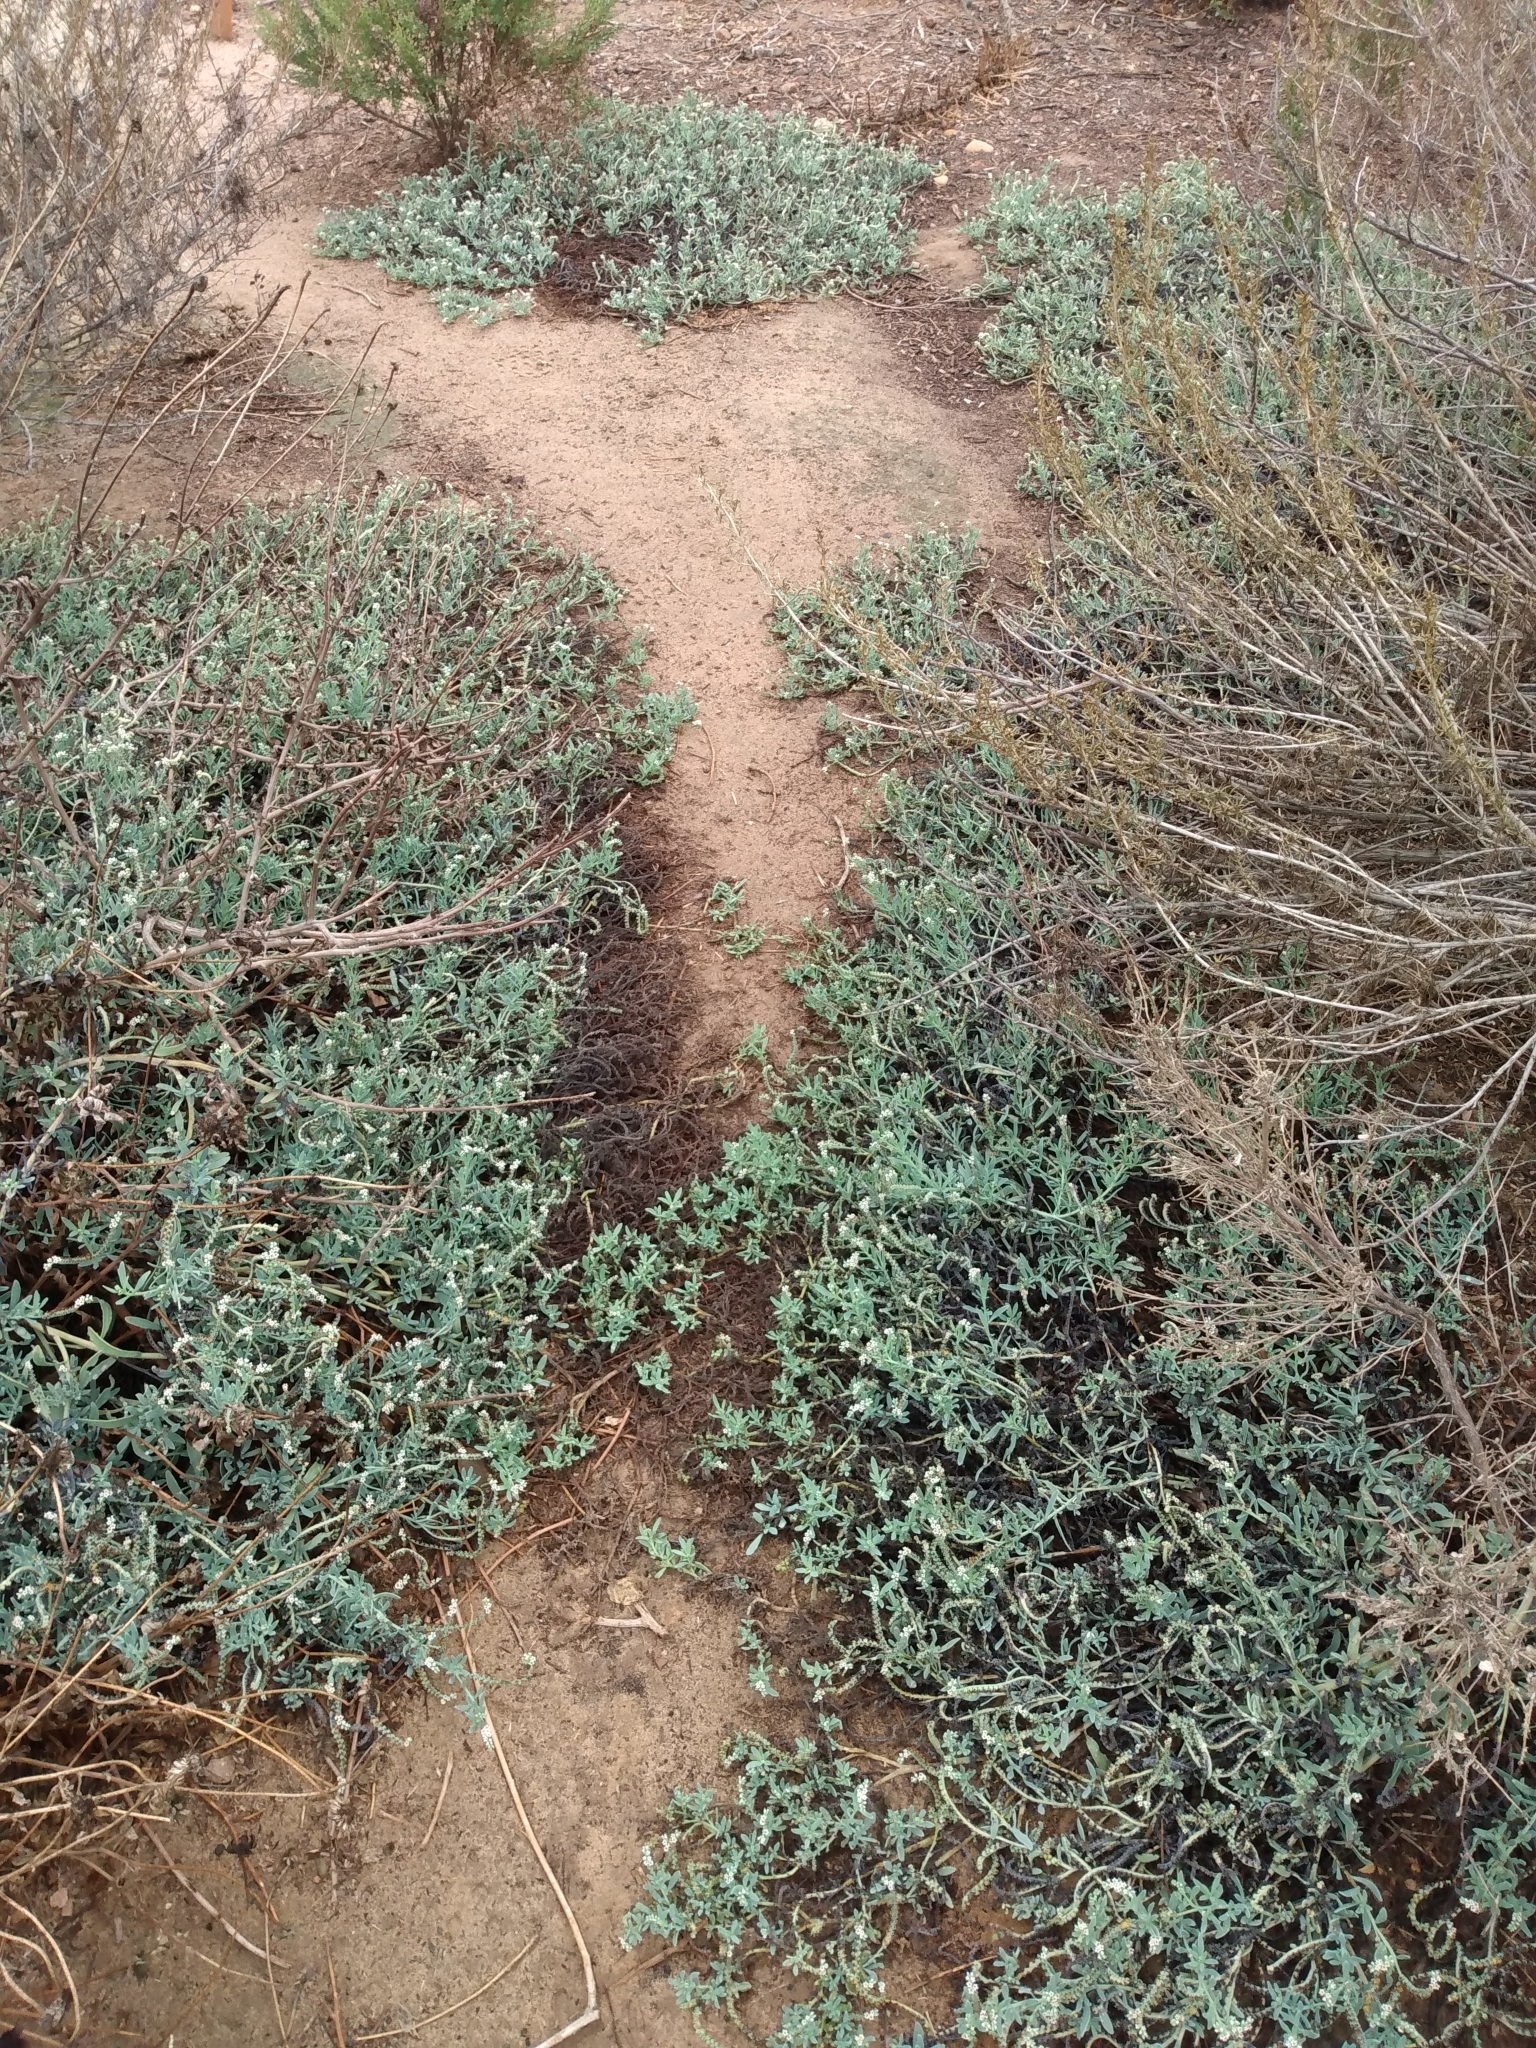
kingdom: Plantae
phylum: Tracheophyta
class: Magnoliopsida
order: Boraginales
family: Heliotropiaceae
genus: Heliotropium
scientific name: Heliotropium curassavicum
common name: Seaside heliotrope
